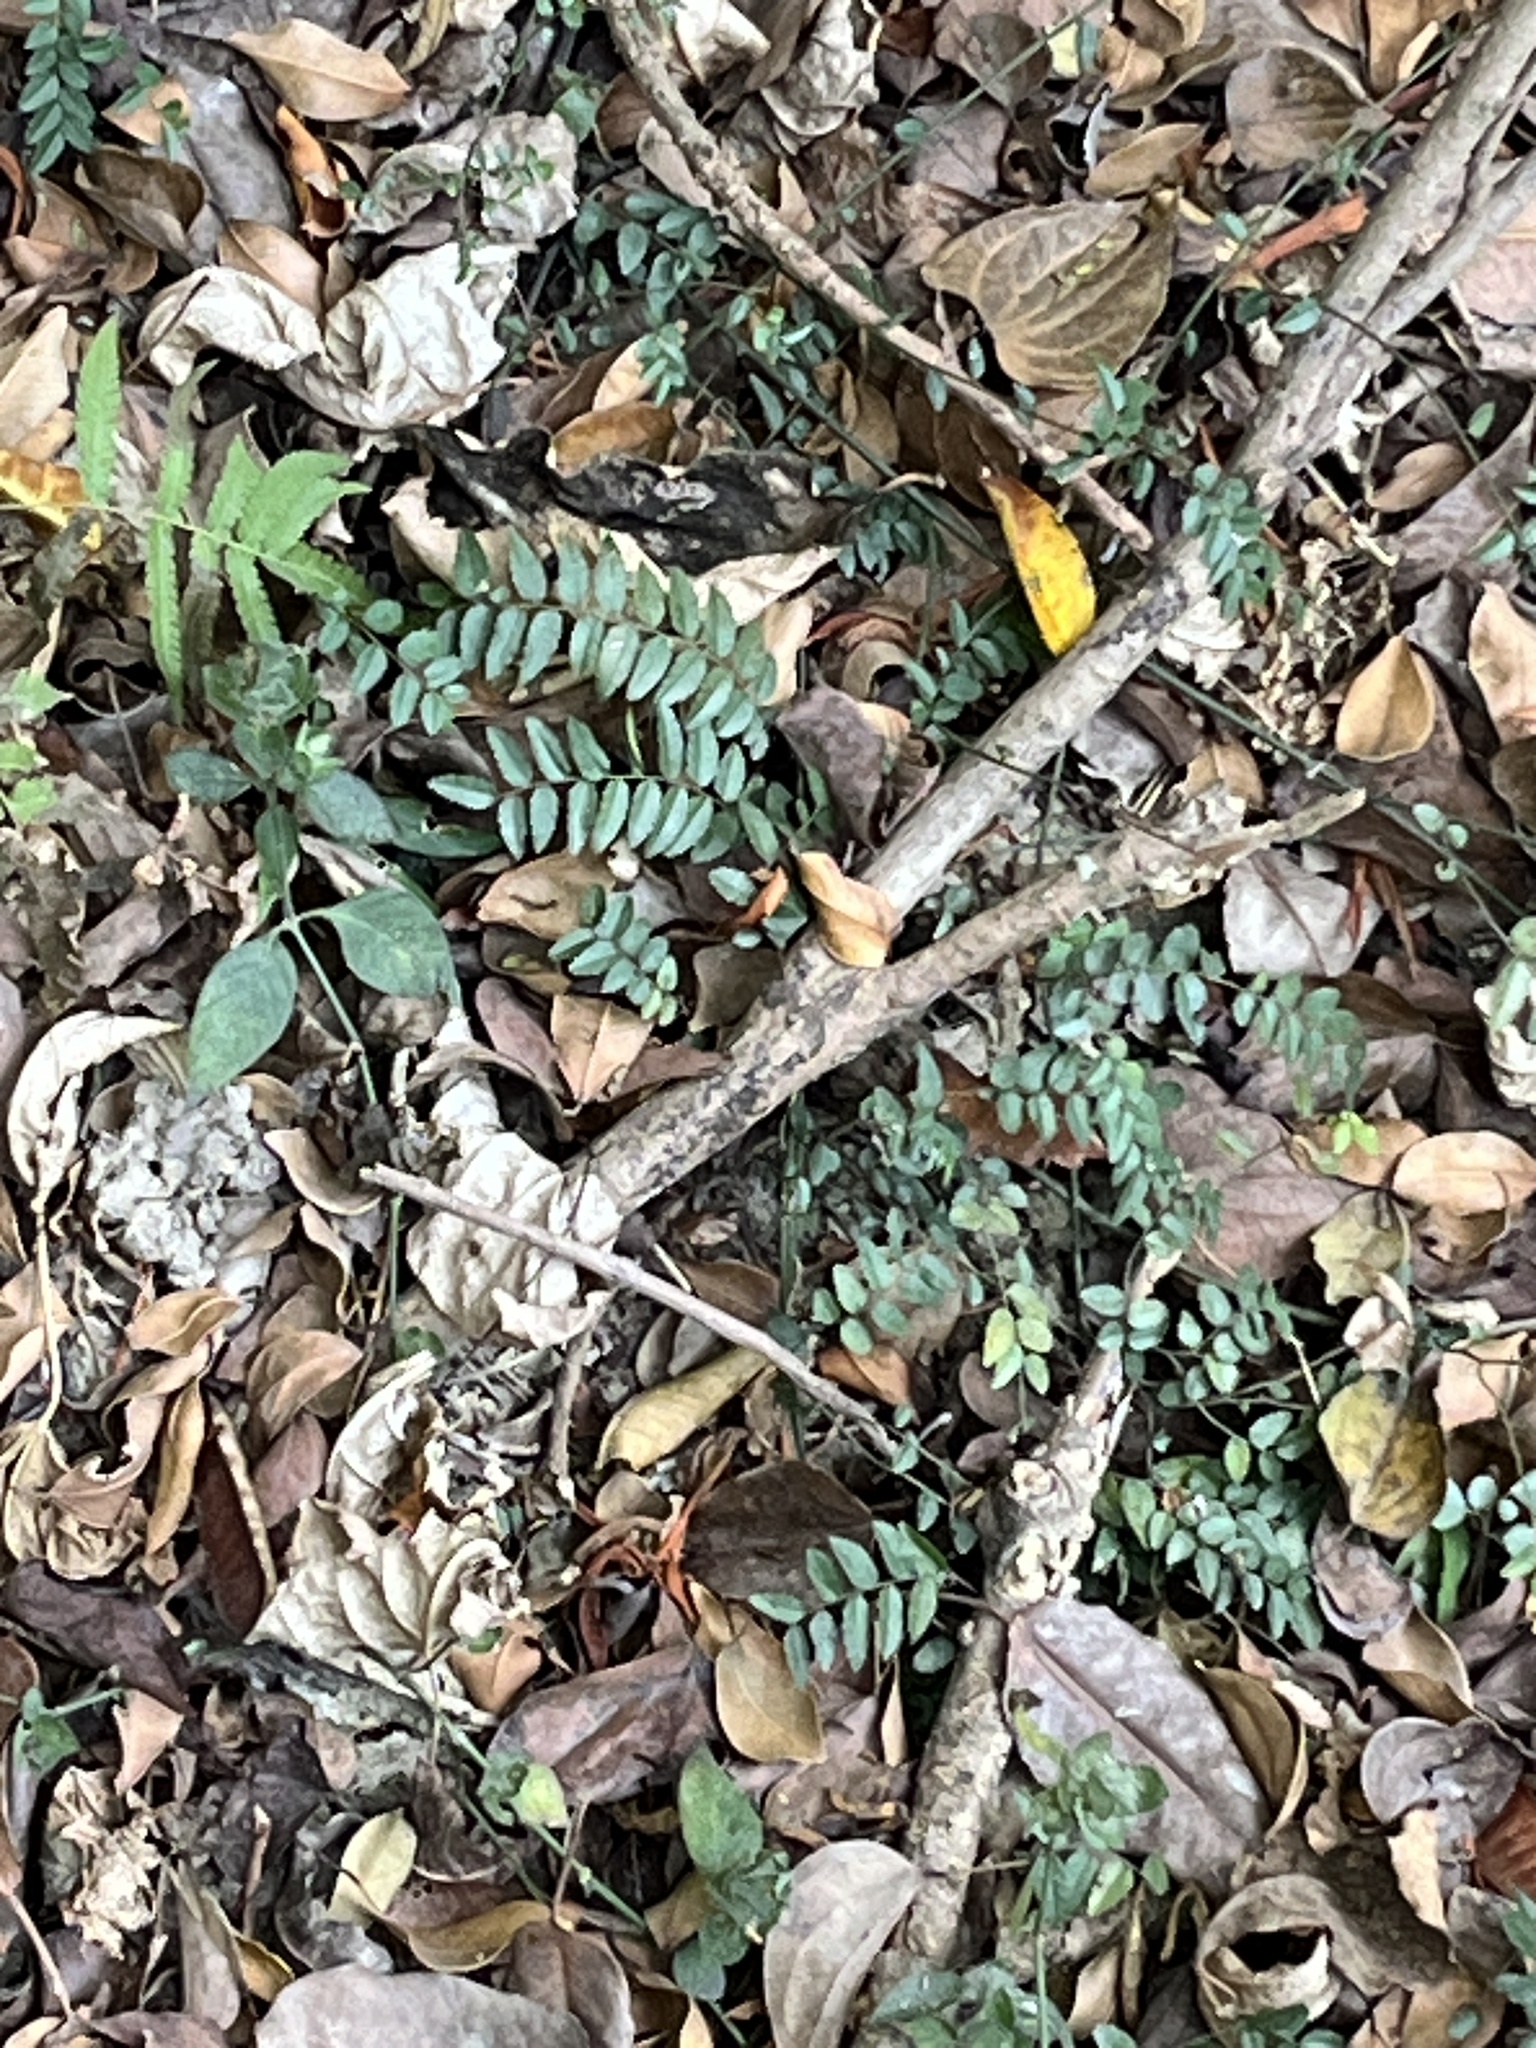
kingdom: Plantae
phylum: Tracheophyta
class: Magnoliopsida
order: Rosales
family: Rhamnaceae
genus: Ventilago
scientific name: Ventilago elegans
